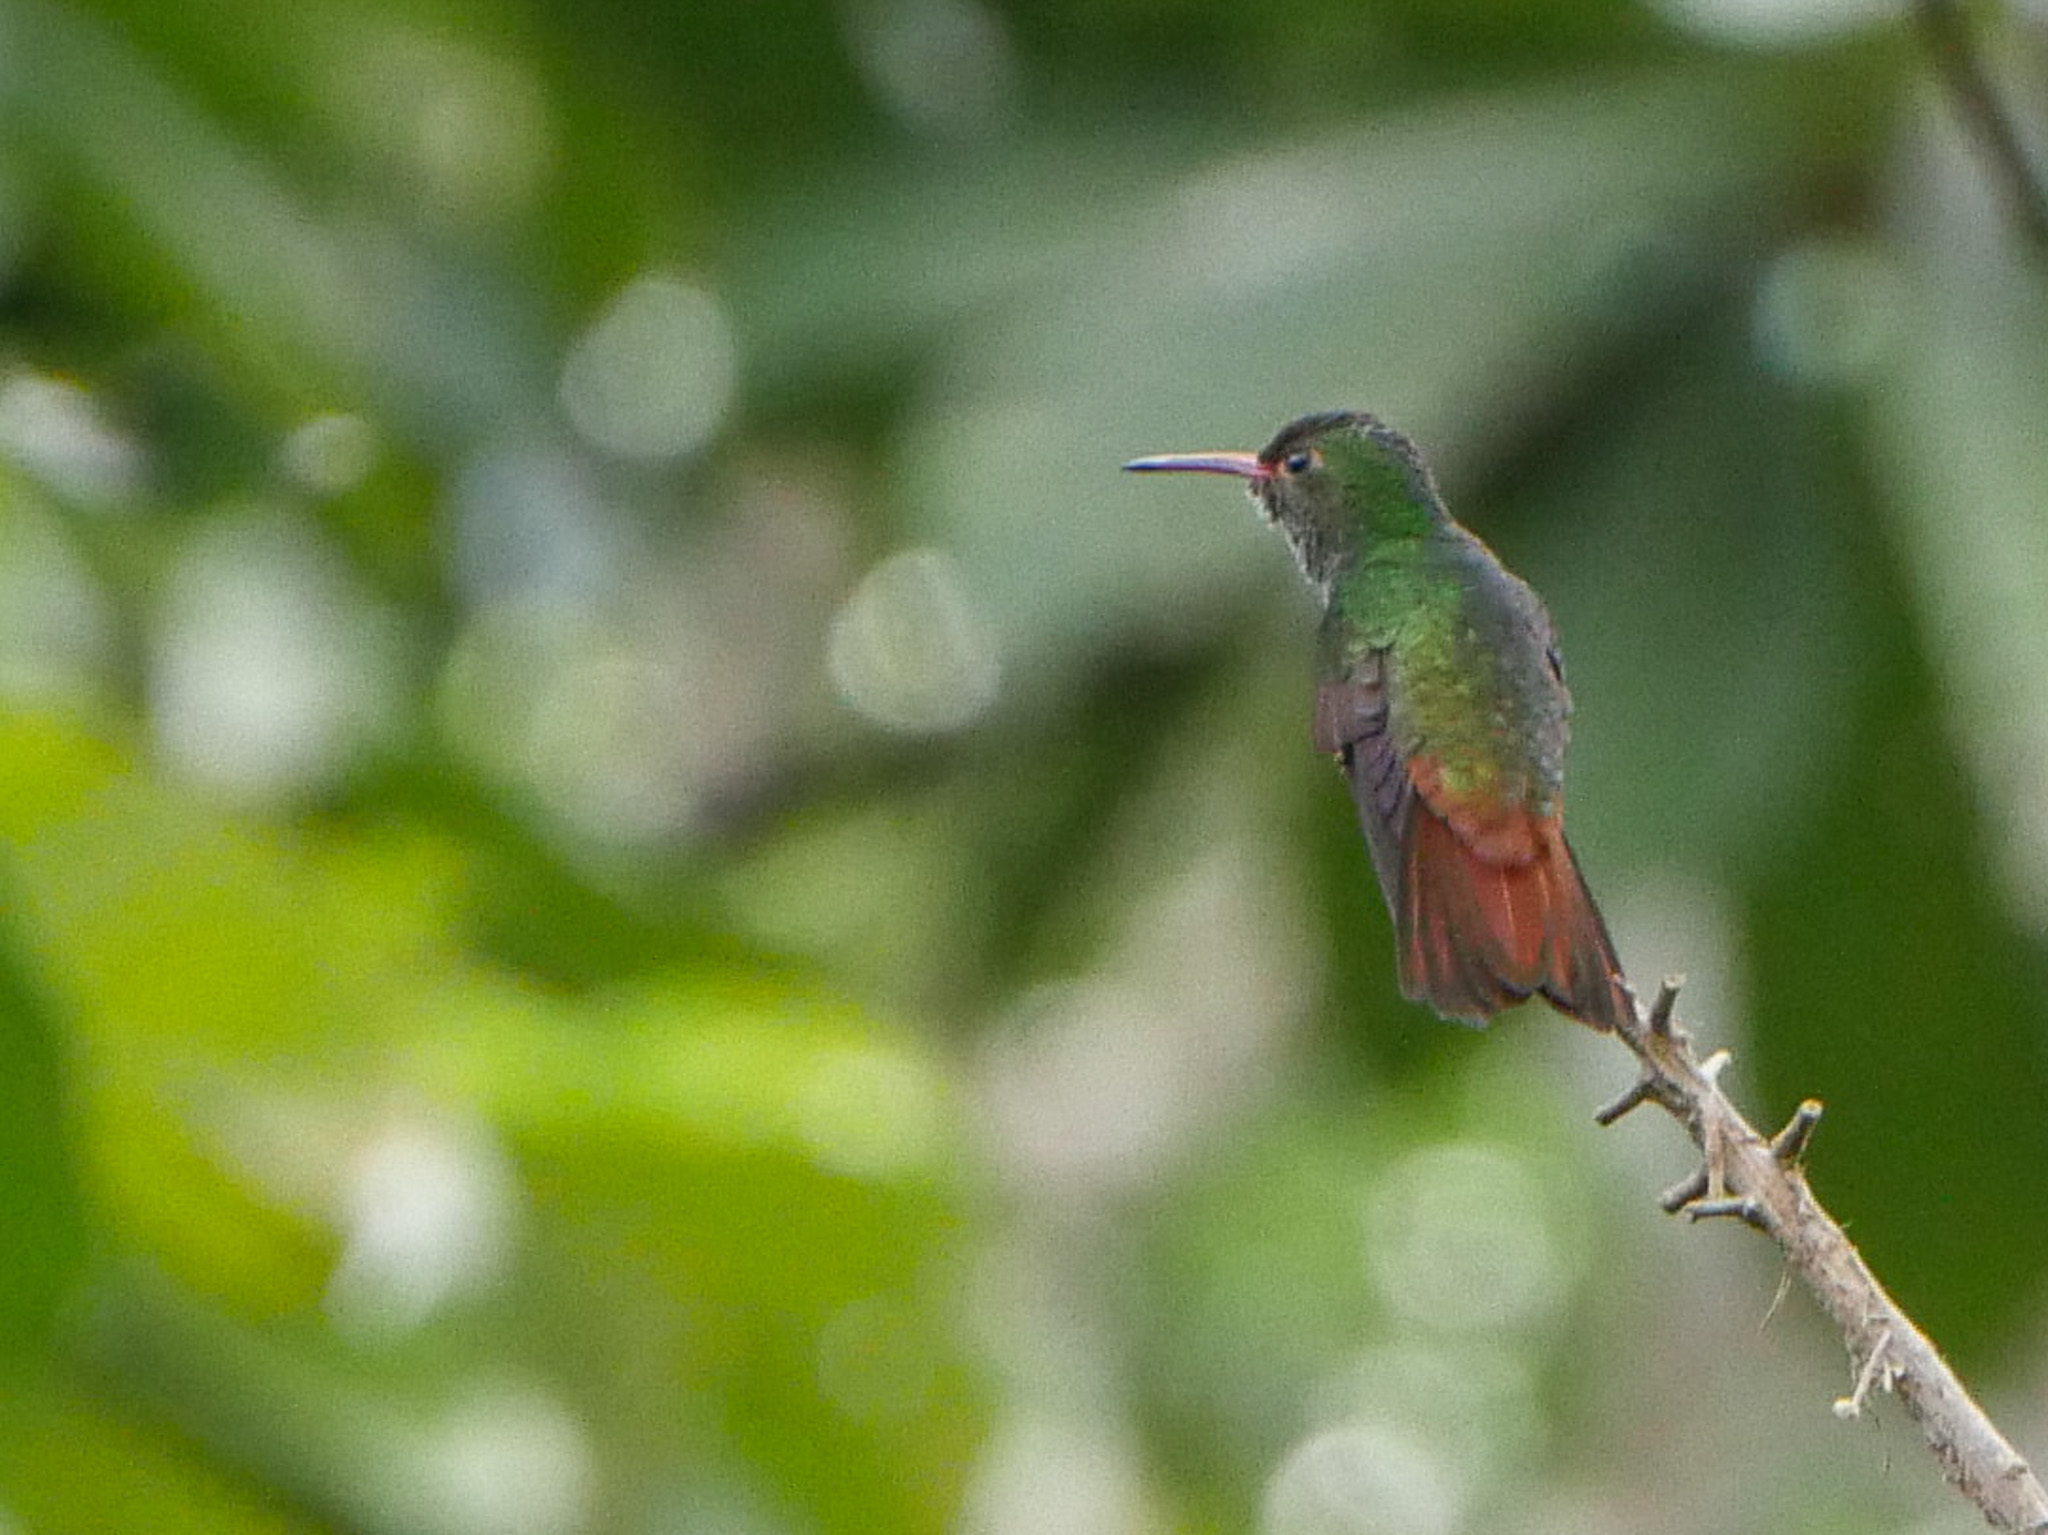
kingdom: Animalia
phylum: Chordata
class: Aves
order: Apodiformes
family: Trochilidae
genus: Amazilia
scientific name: Amazilia tzacatl
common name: Rufous-tailed hummingbird
